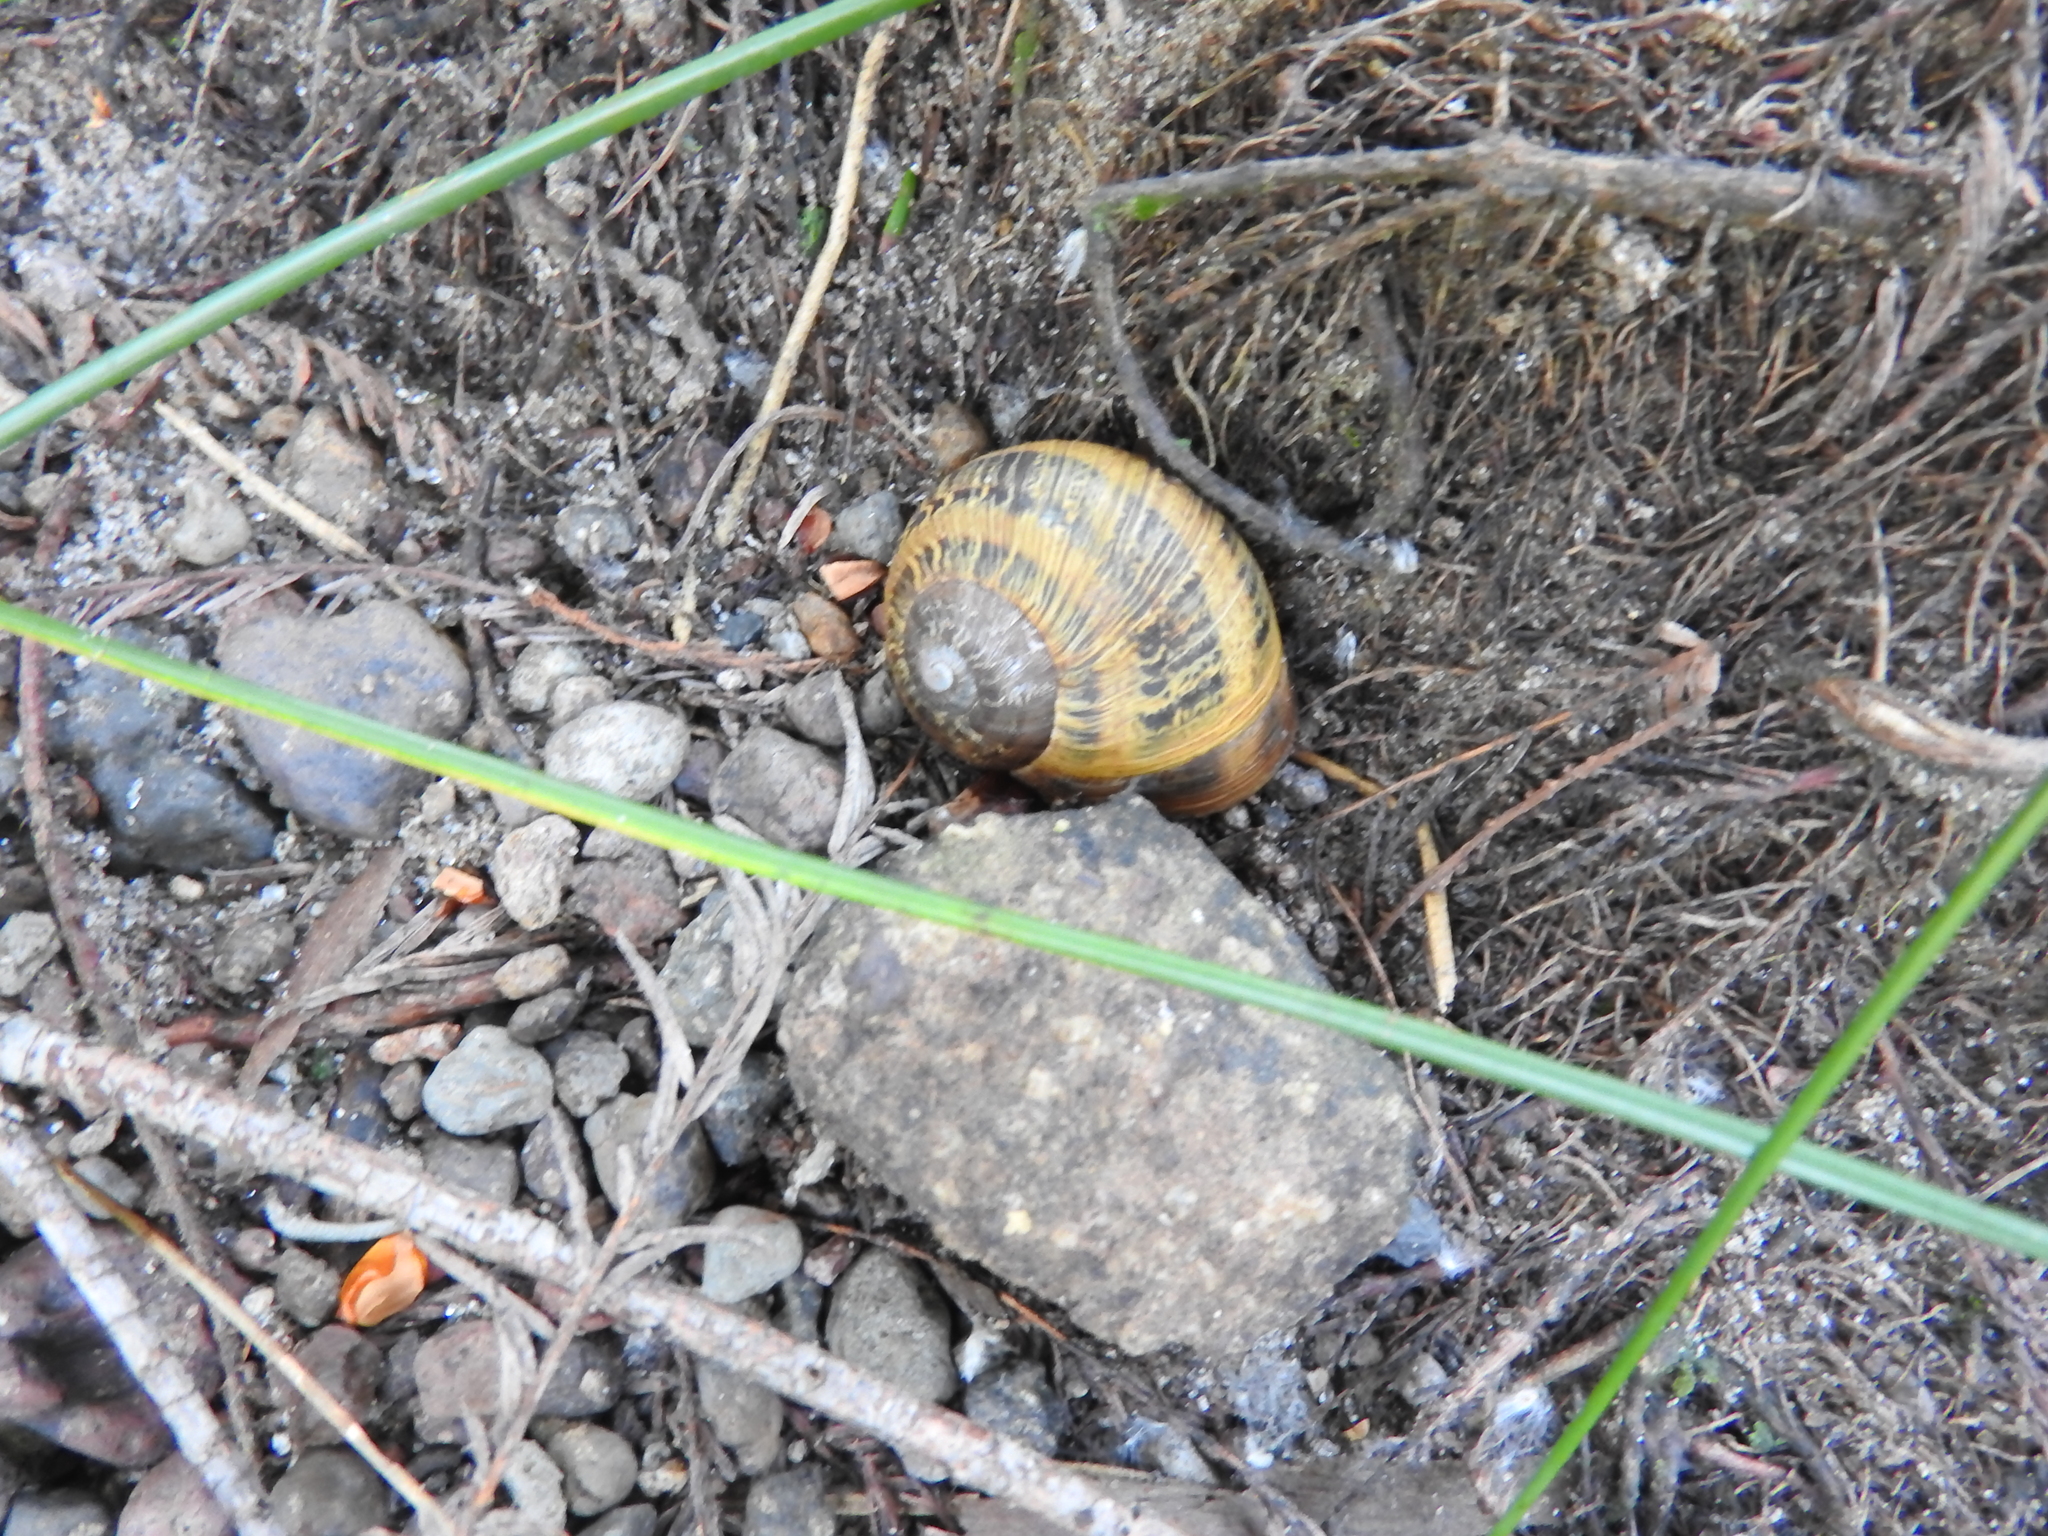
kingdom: Animalia
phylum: Mollusca
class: Gastropoda
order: Stylommatophora
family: Helicidae
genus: Cornu
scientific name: Cornu aspersum
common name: Brown garden snail
